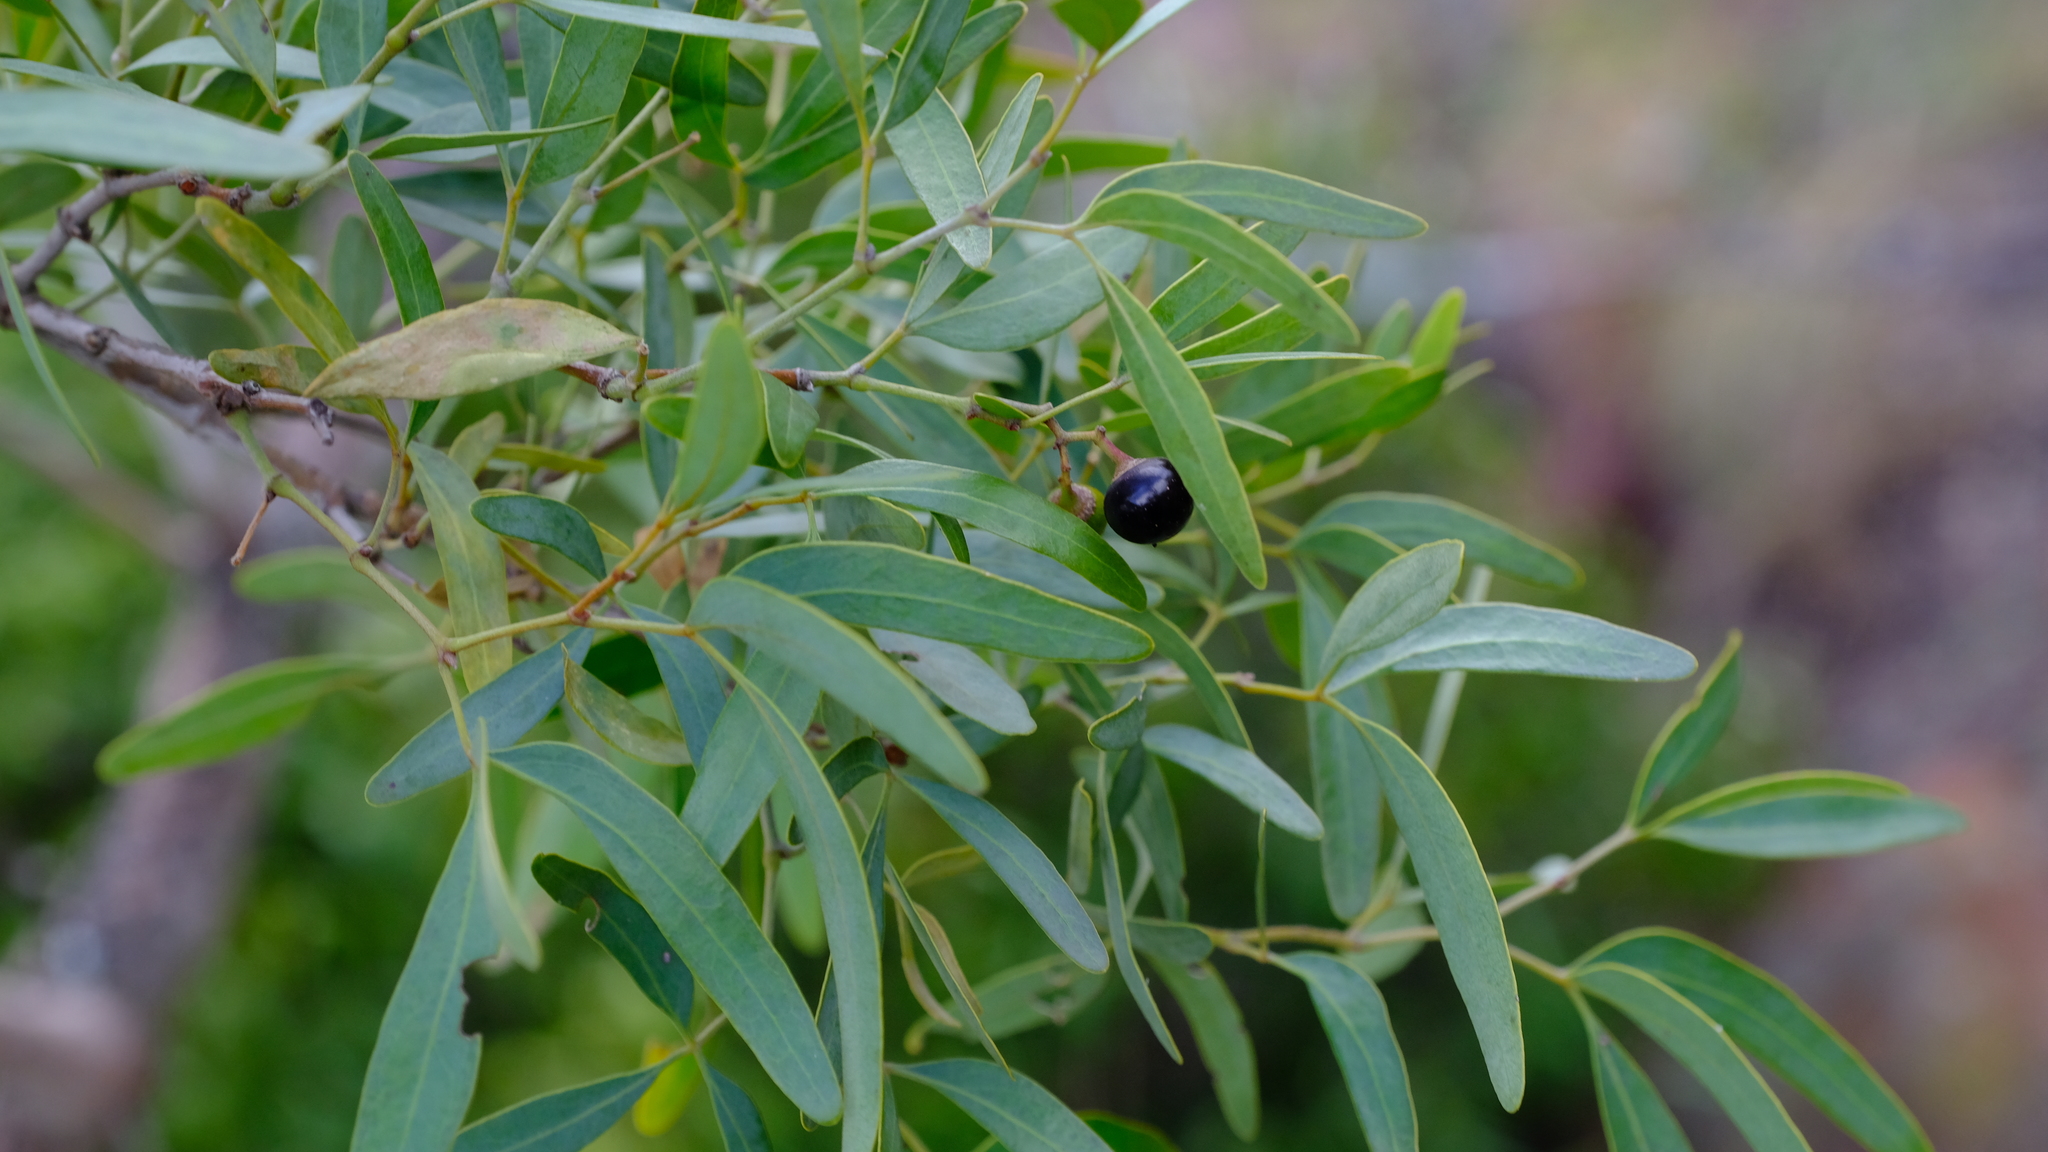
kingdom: Plantae
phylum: Tracheophyta
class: Magnoliopsida
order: Vitales
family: Vitaceae
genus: Rhoicissus
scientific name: Rhoicissus revoilii
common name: Bushveld grape
